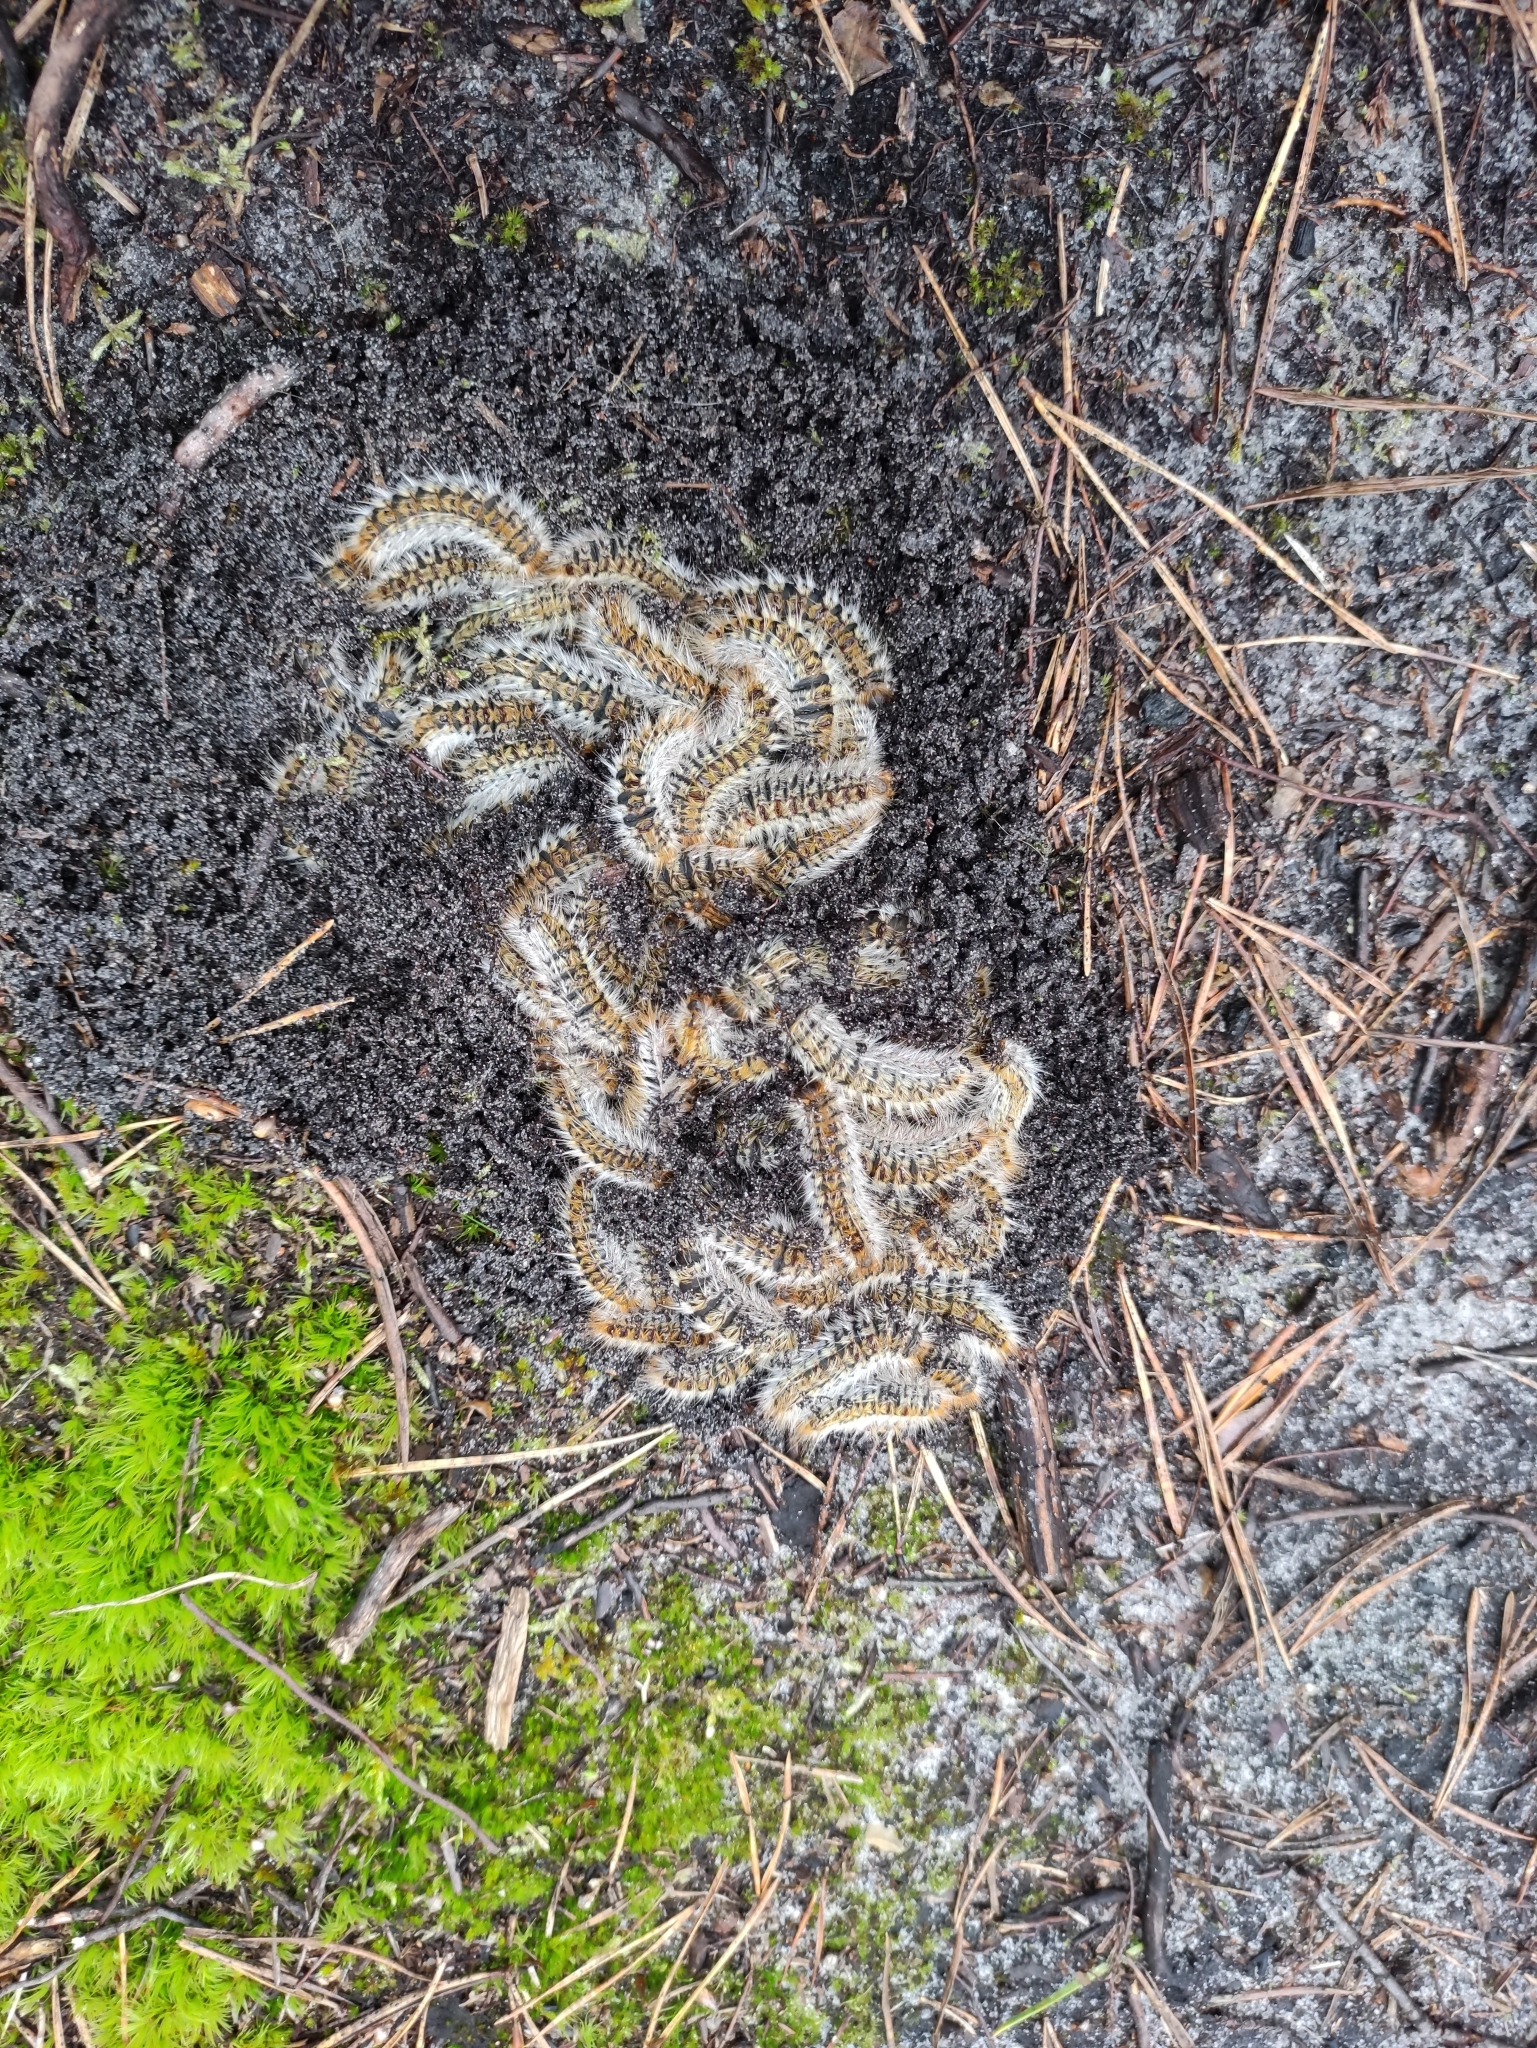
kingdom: Animalia
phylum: Arthropoda
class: Insecta
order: Lepidoptera
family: Notodontidae
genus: Thaumetopoea
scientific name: Thaumetopoea pityocampa
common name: Pine processionary
